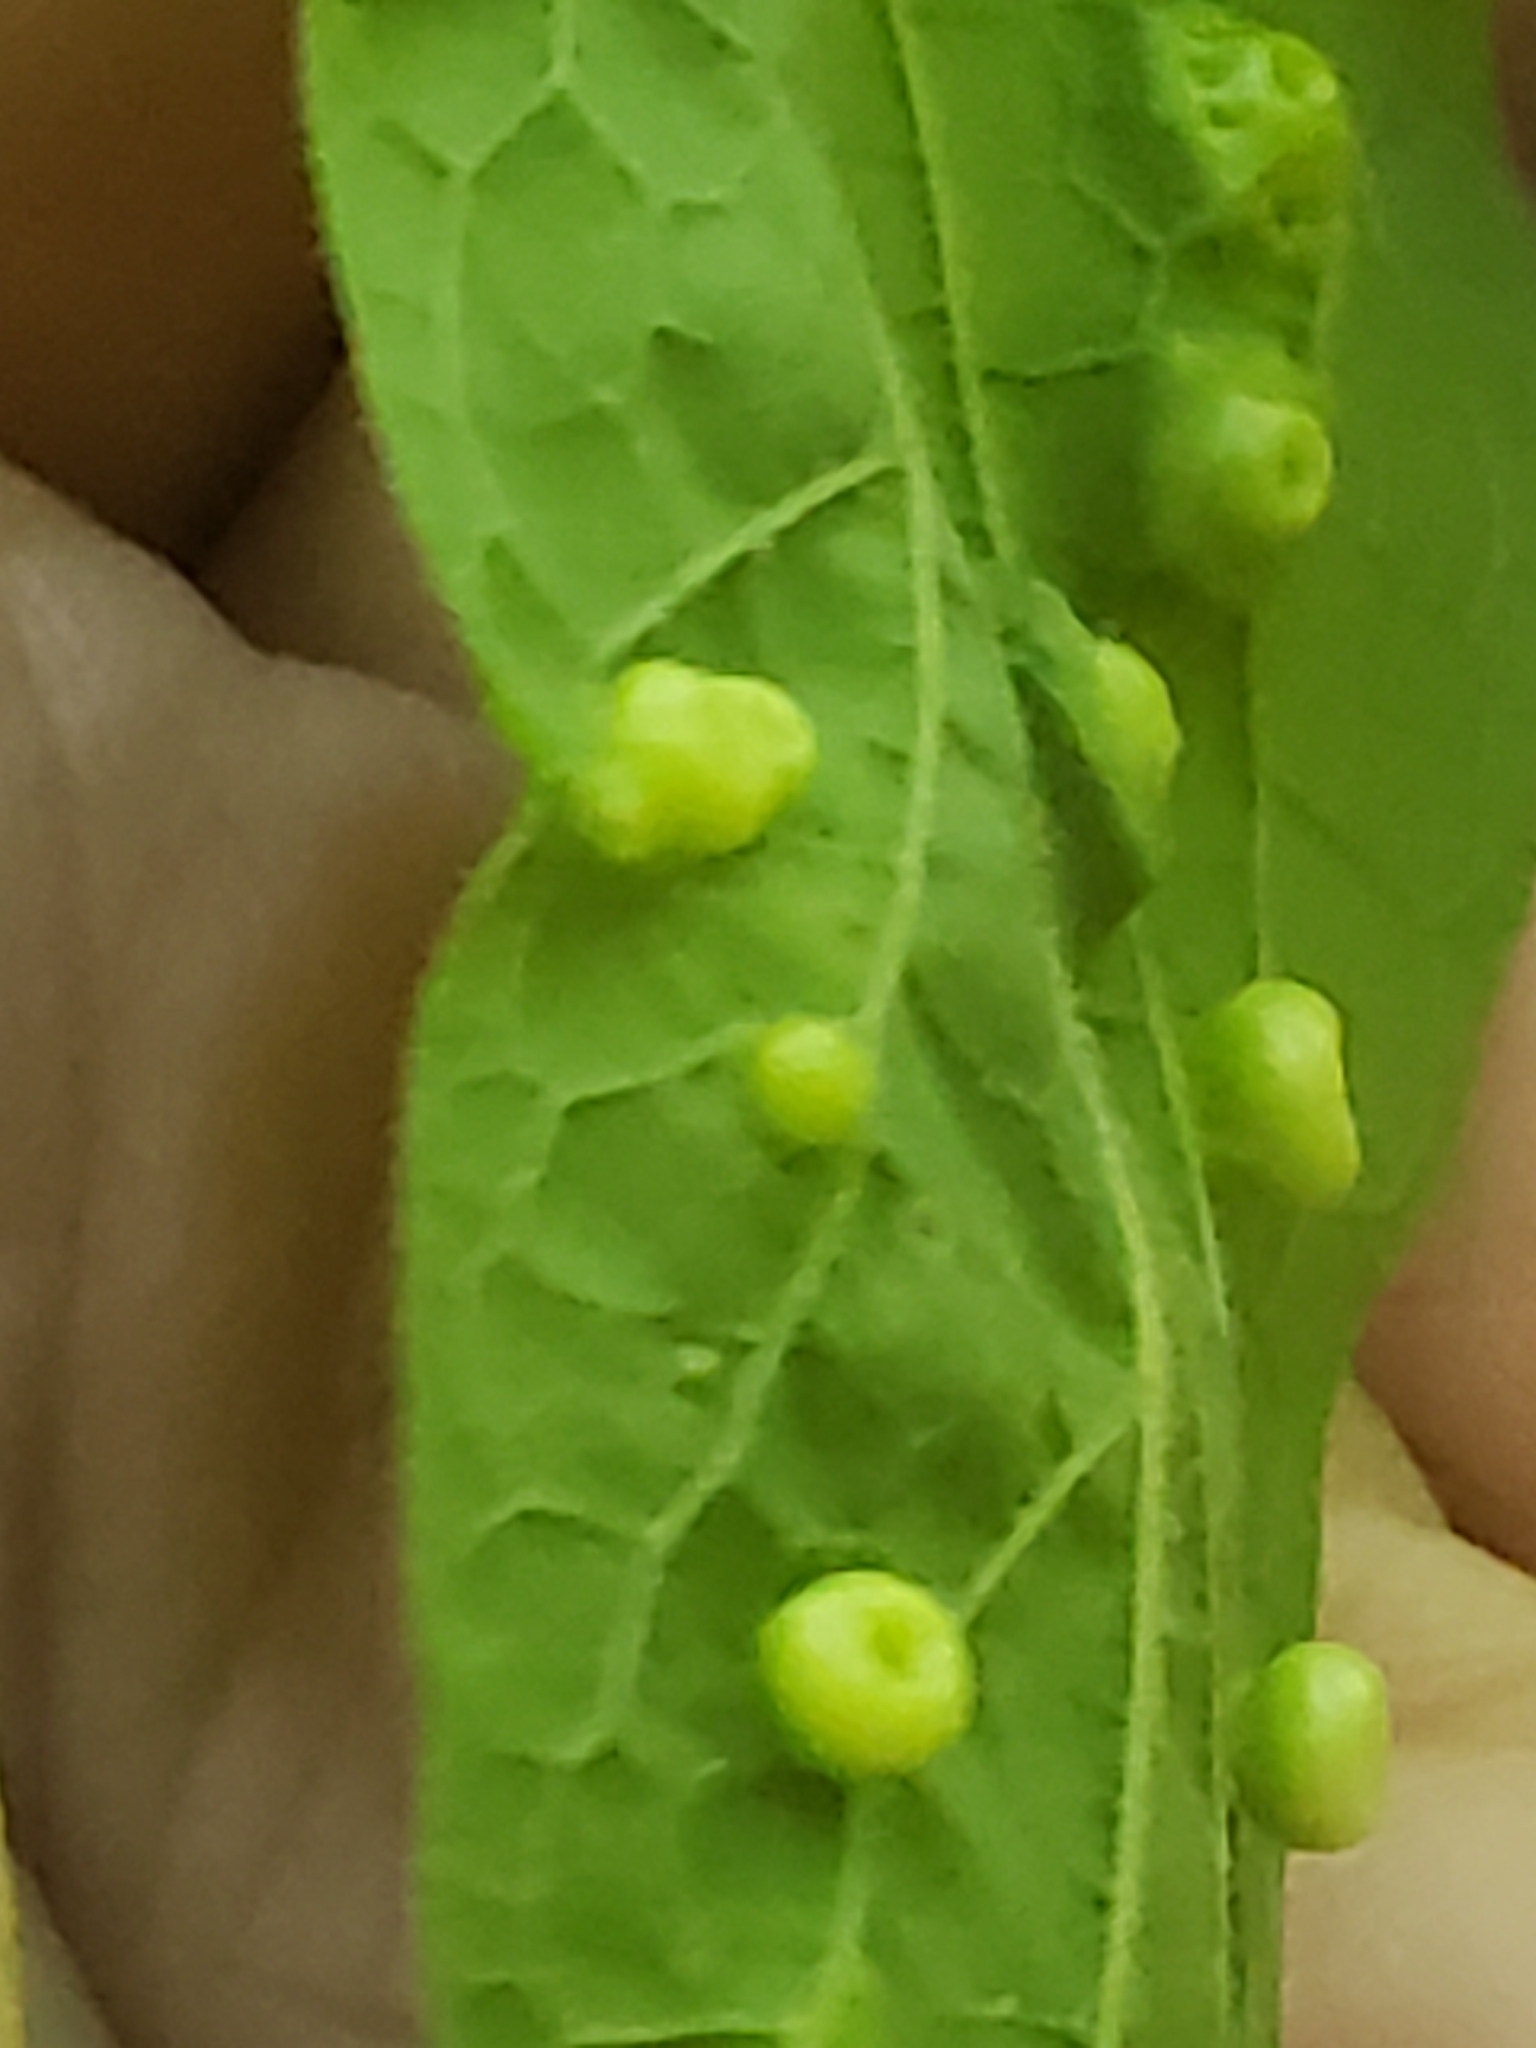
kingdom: Animalia
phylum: Arthropoda
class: Insecta
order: Hemiptera
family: Aphalaridae
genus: Pachypsylla
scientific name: Pachypsylla celtidismamma
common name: Hackberry nipplegall psyllid
